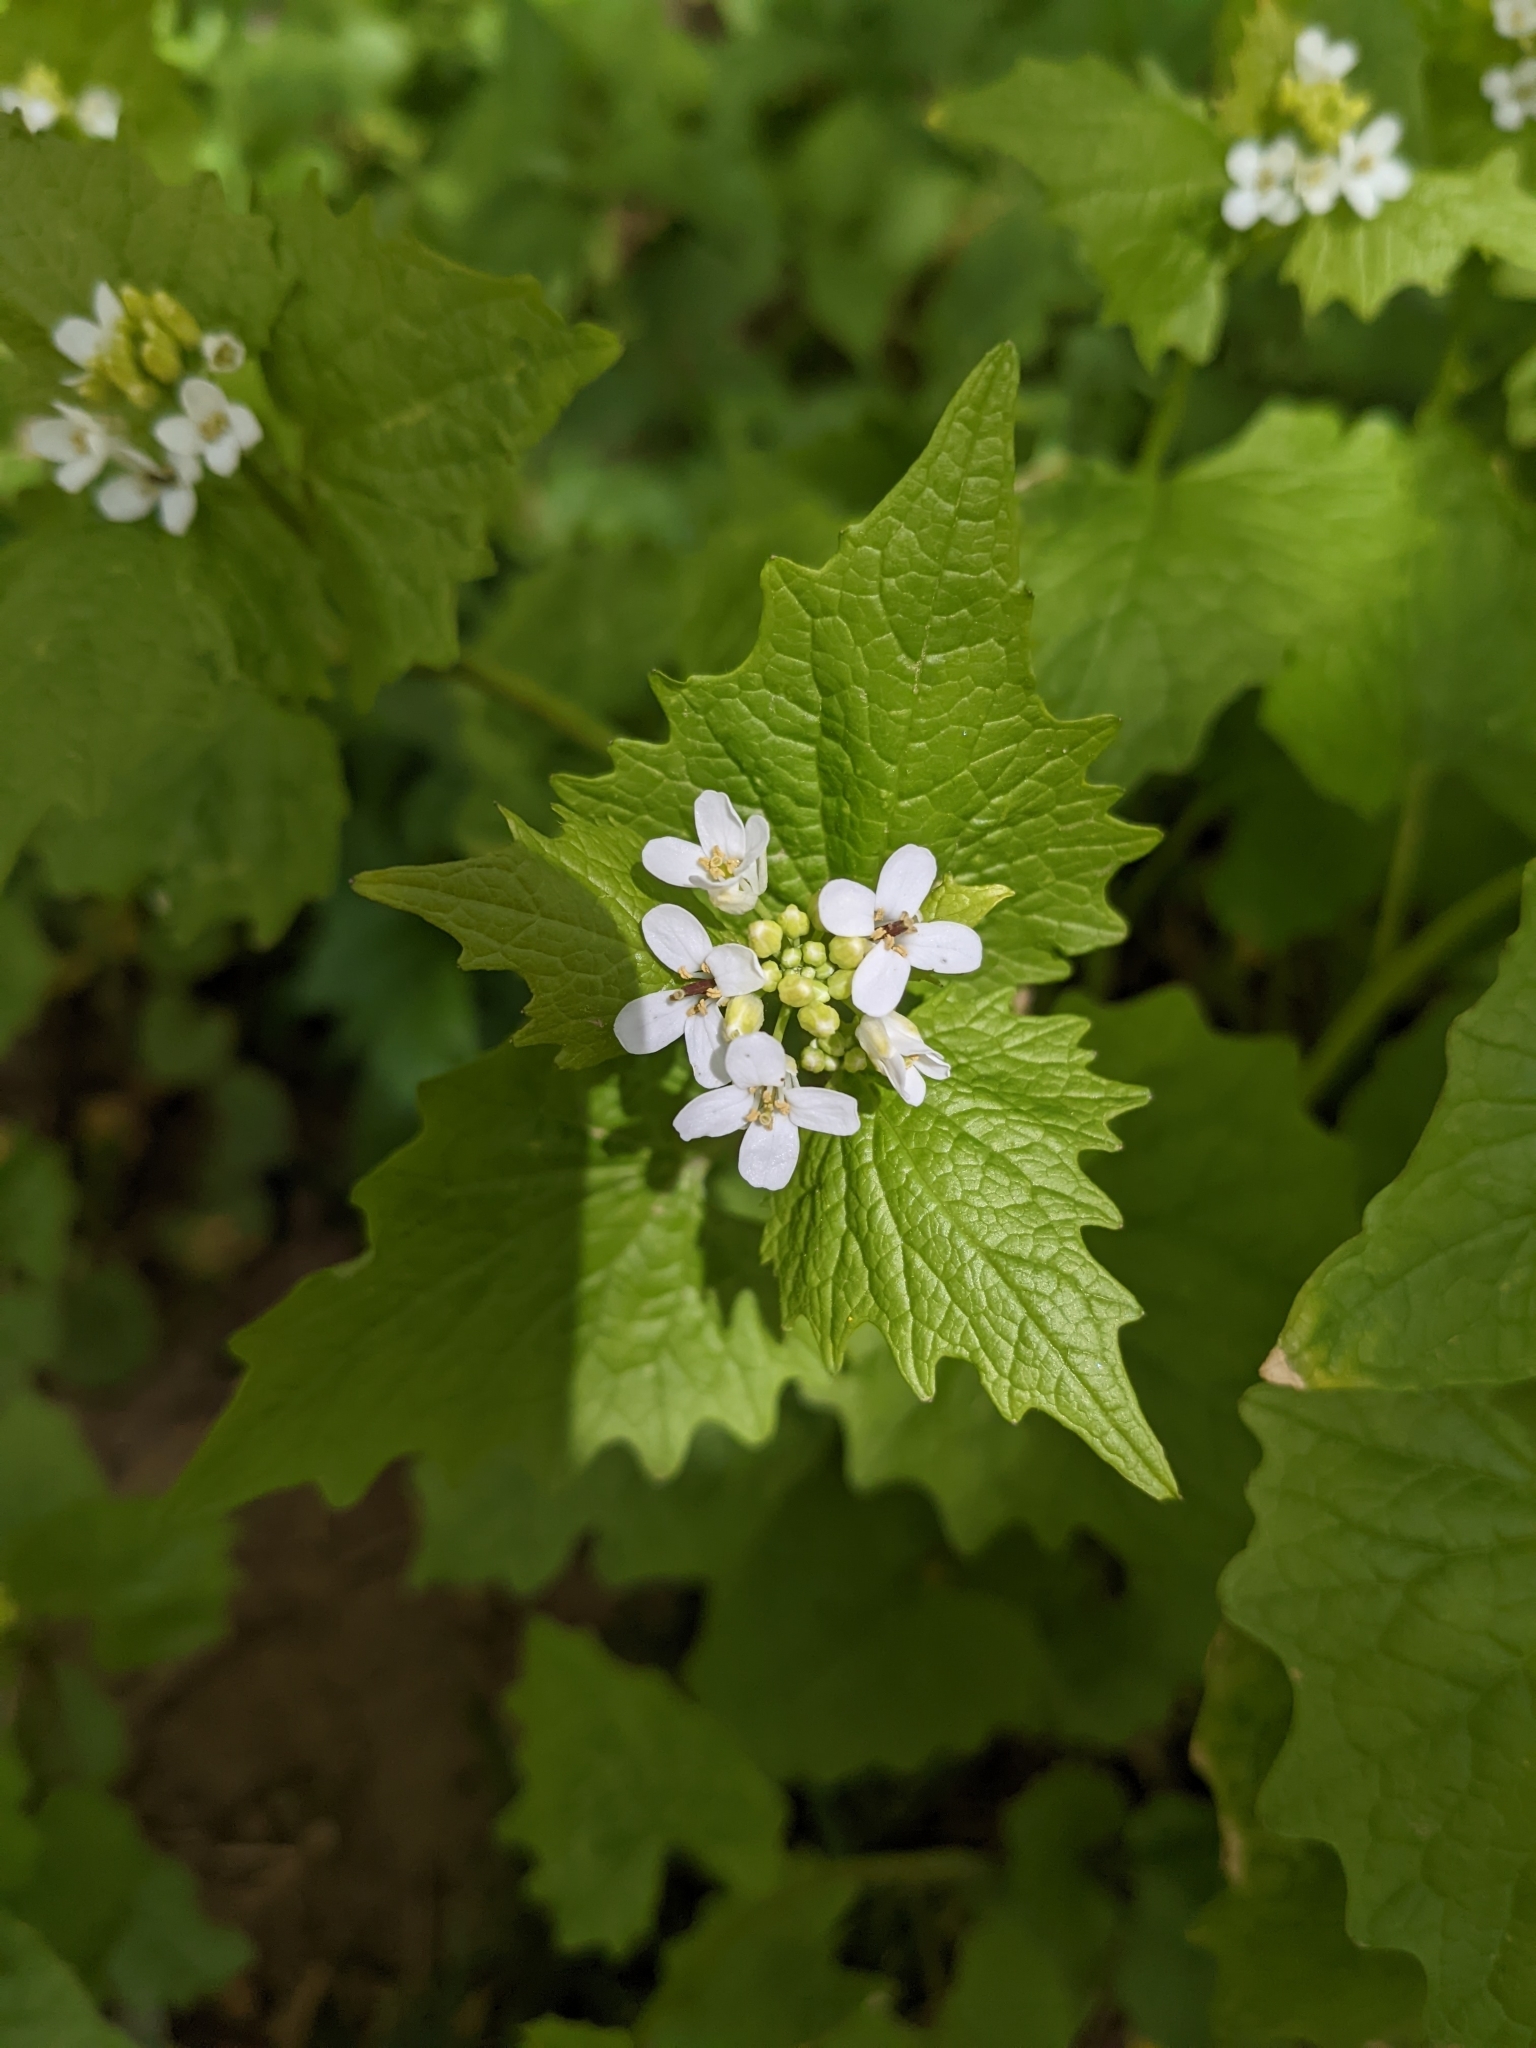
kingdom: Plantae
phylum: Tracheophyta
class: Magnoliopsida
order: Brassicales
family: Brassicaceae
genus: Alliaria
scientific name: Alliaria petiolata
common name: Garlic mustard
